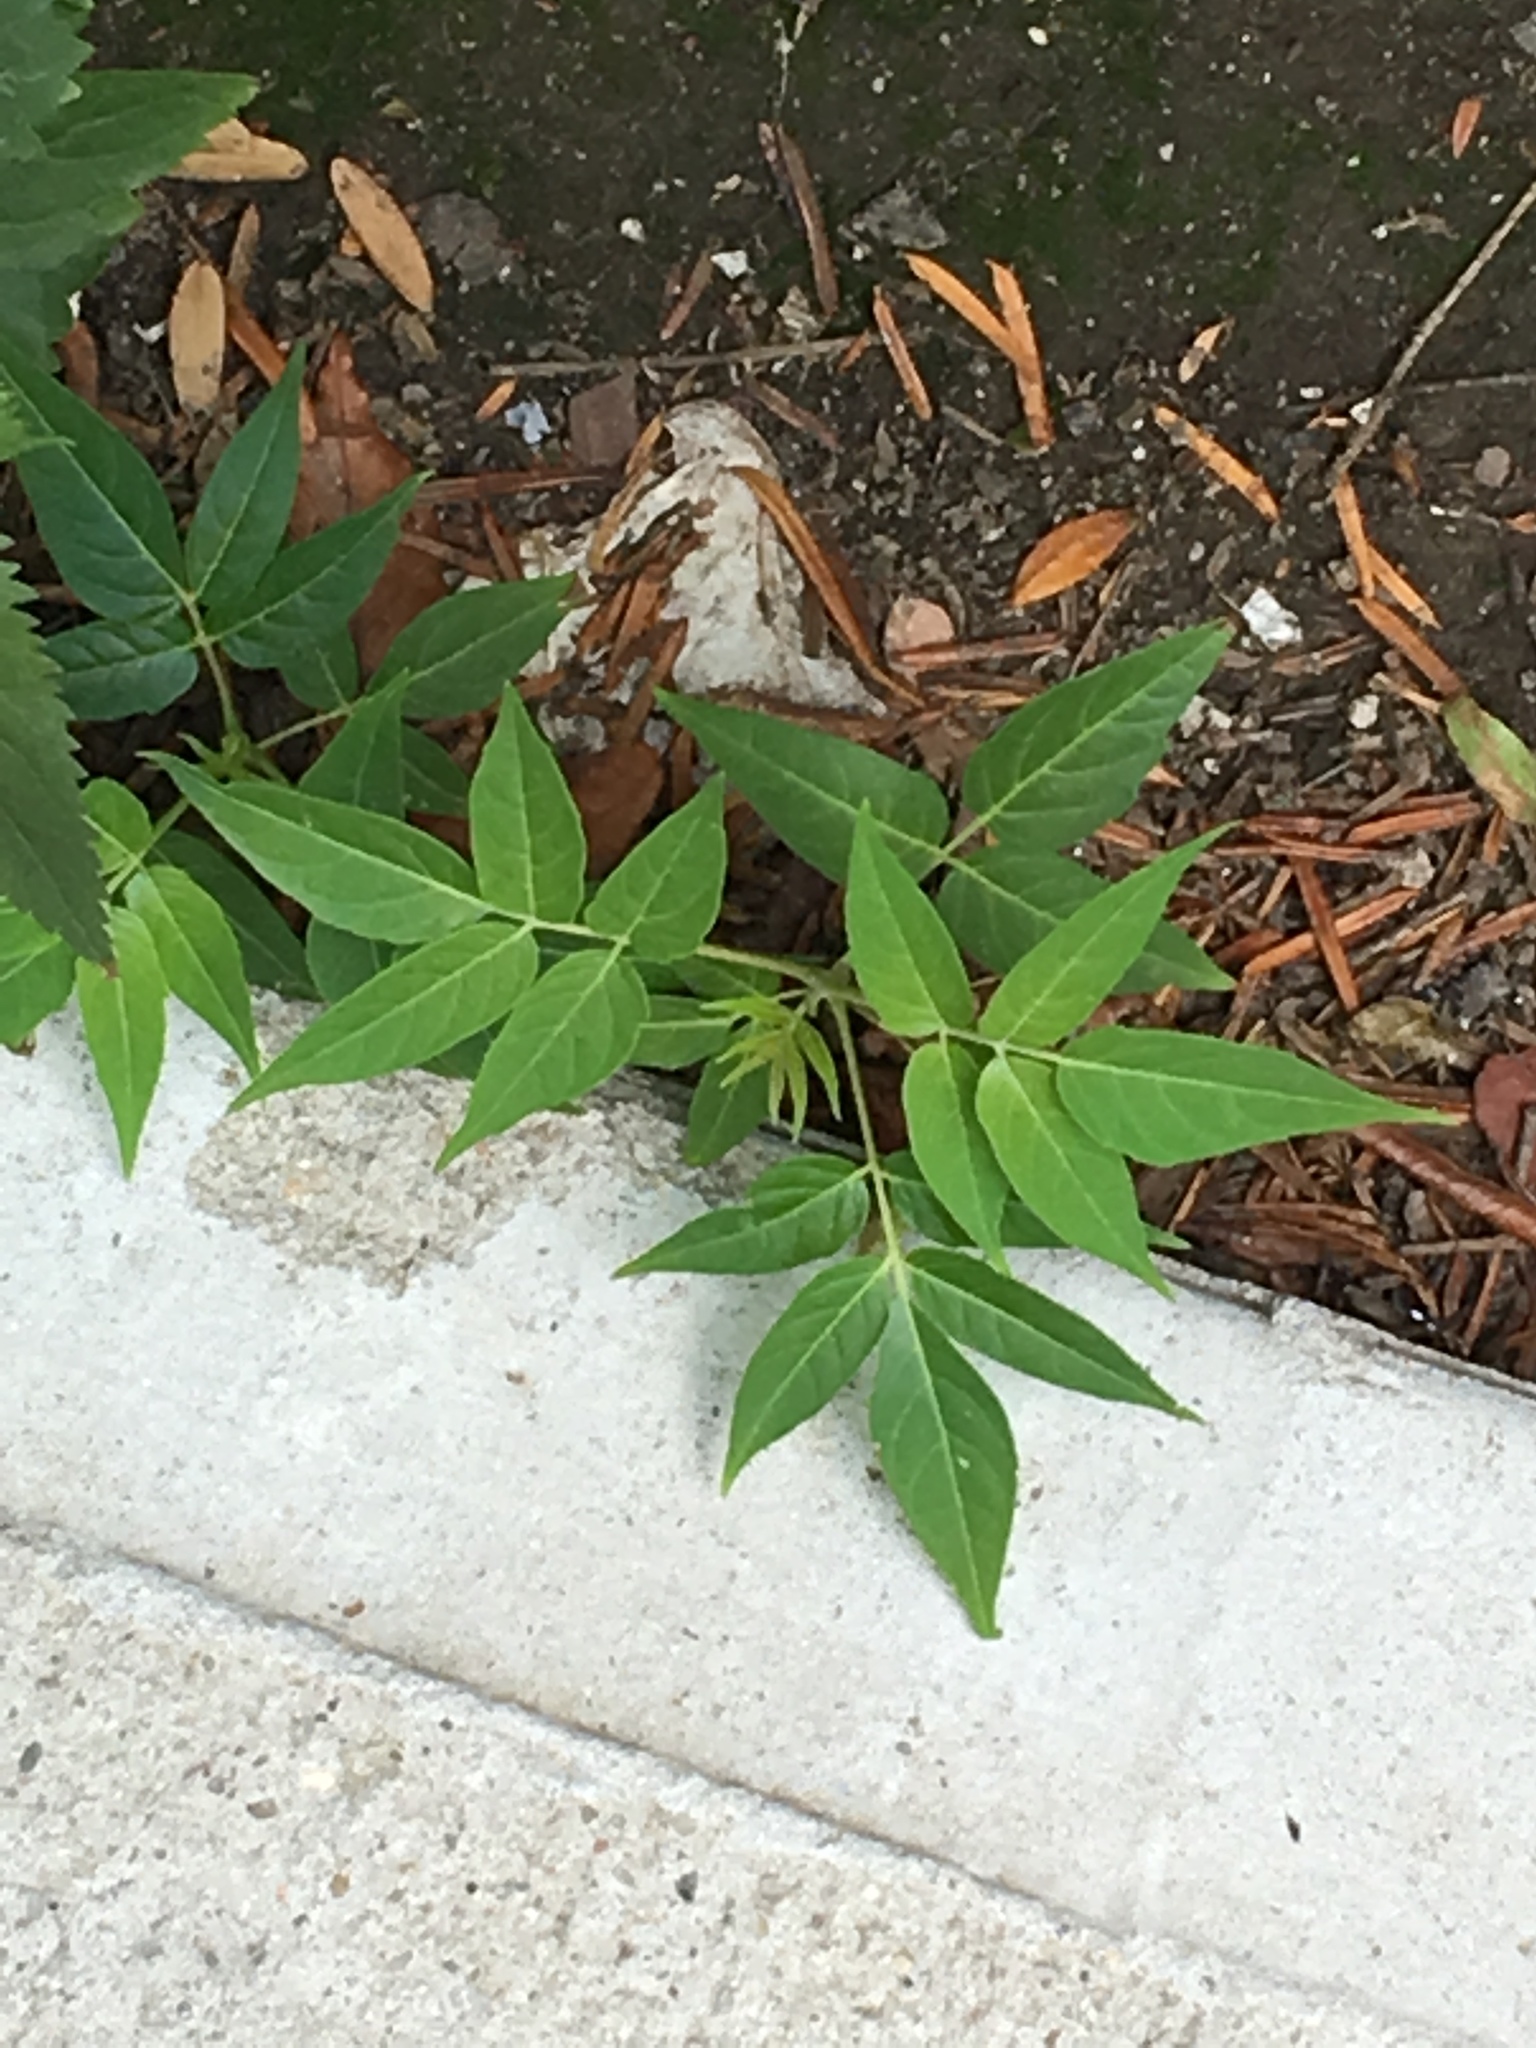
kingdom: Plantae
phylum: Tracheophyta
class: Magnoliopsida
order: Sapindales
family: Simaroubaceae
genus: Ailanthus
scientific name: Ailanthus altissima
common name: Tree-of-heaven
